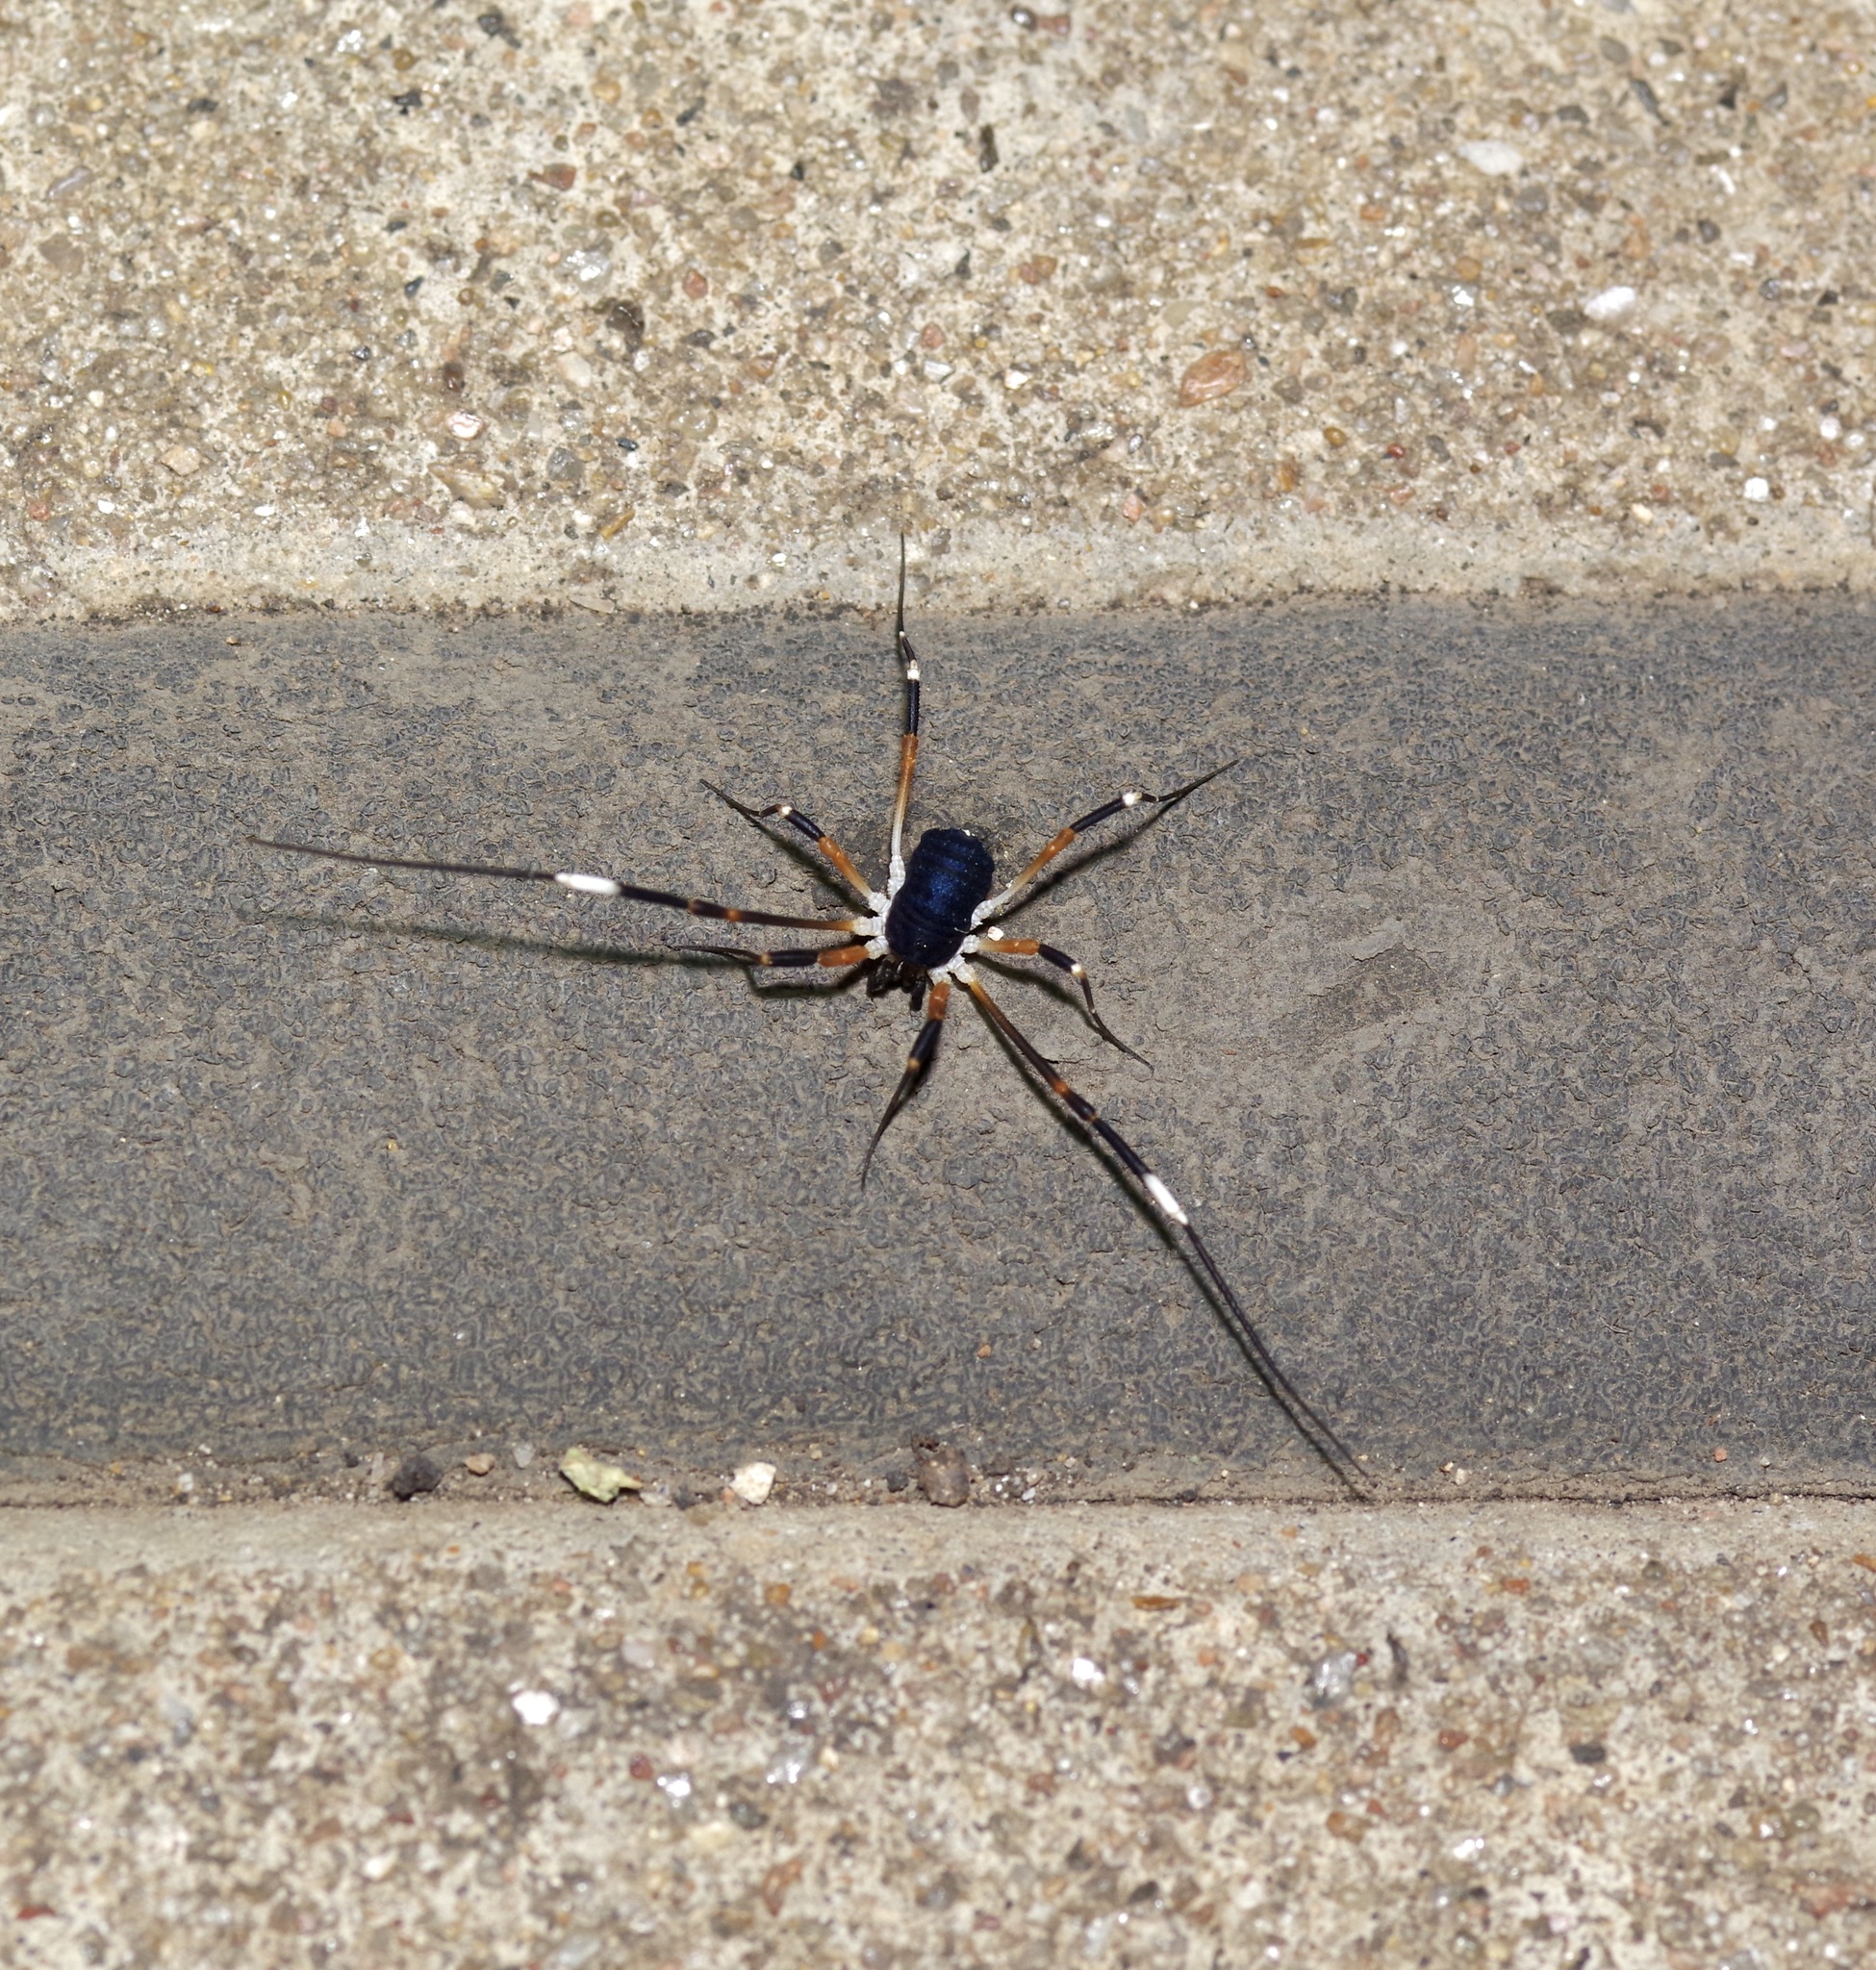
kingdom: Animalia
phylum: Arthropoda
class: Arachnida
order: Opiliones
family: Globipedidae
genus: Dalquestia
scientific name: Dalquestia formosa
